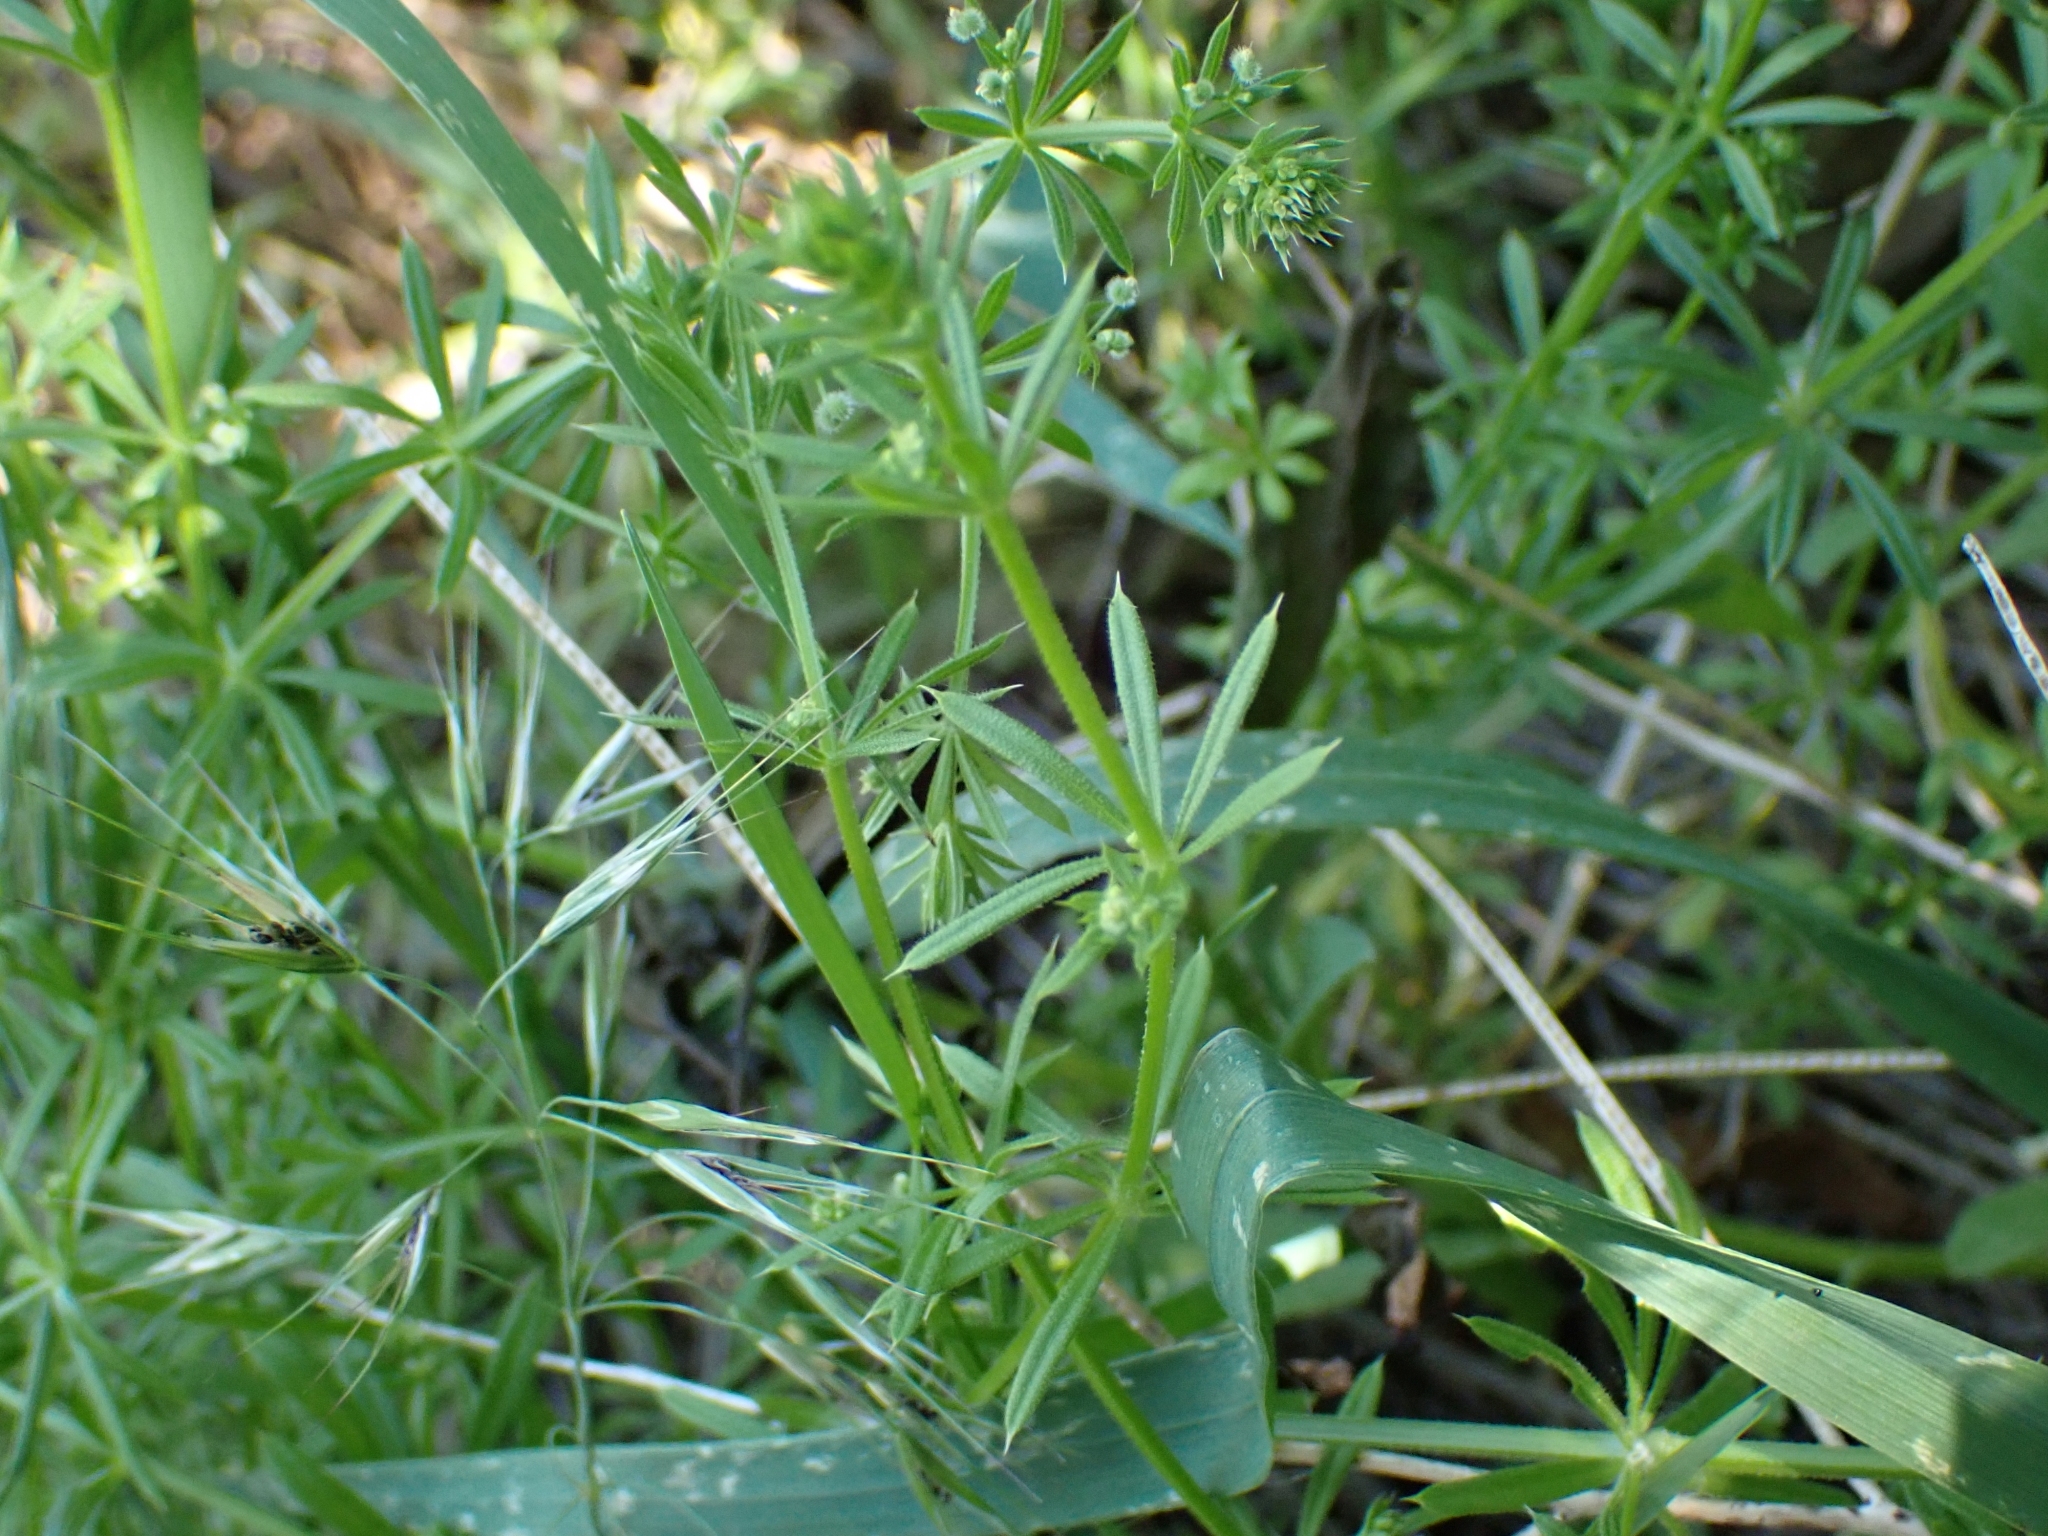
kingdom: Plantae
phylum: Tracheophyta
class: Magnoliopsida
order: Gentianales
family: Rubiaceae
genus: Galium
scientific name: Galium aparine
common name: Cleavers
